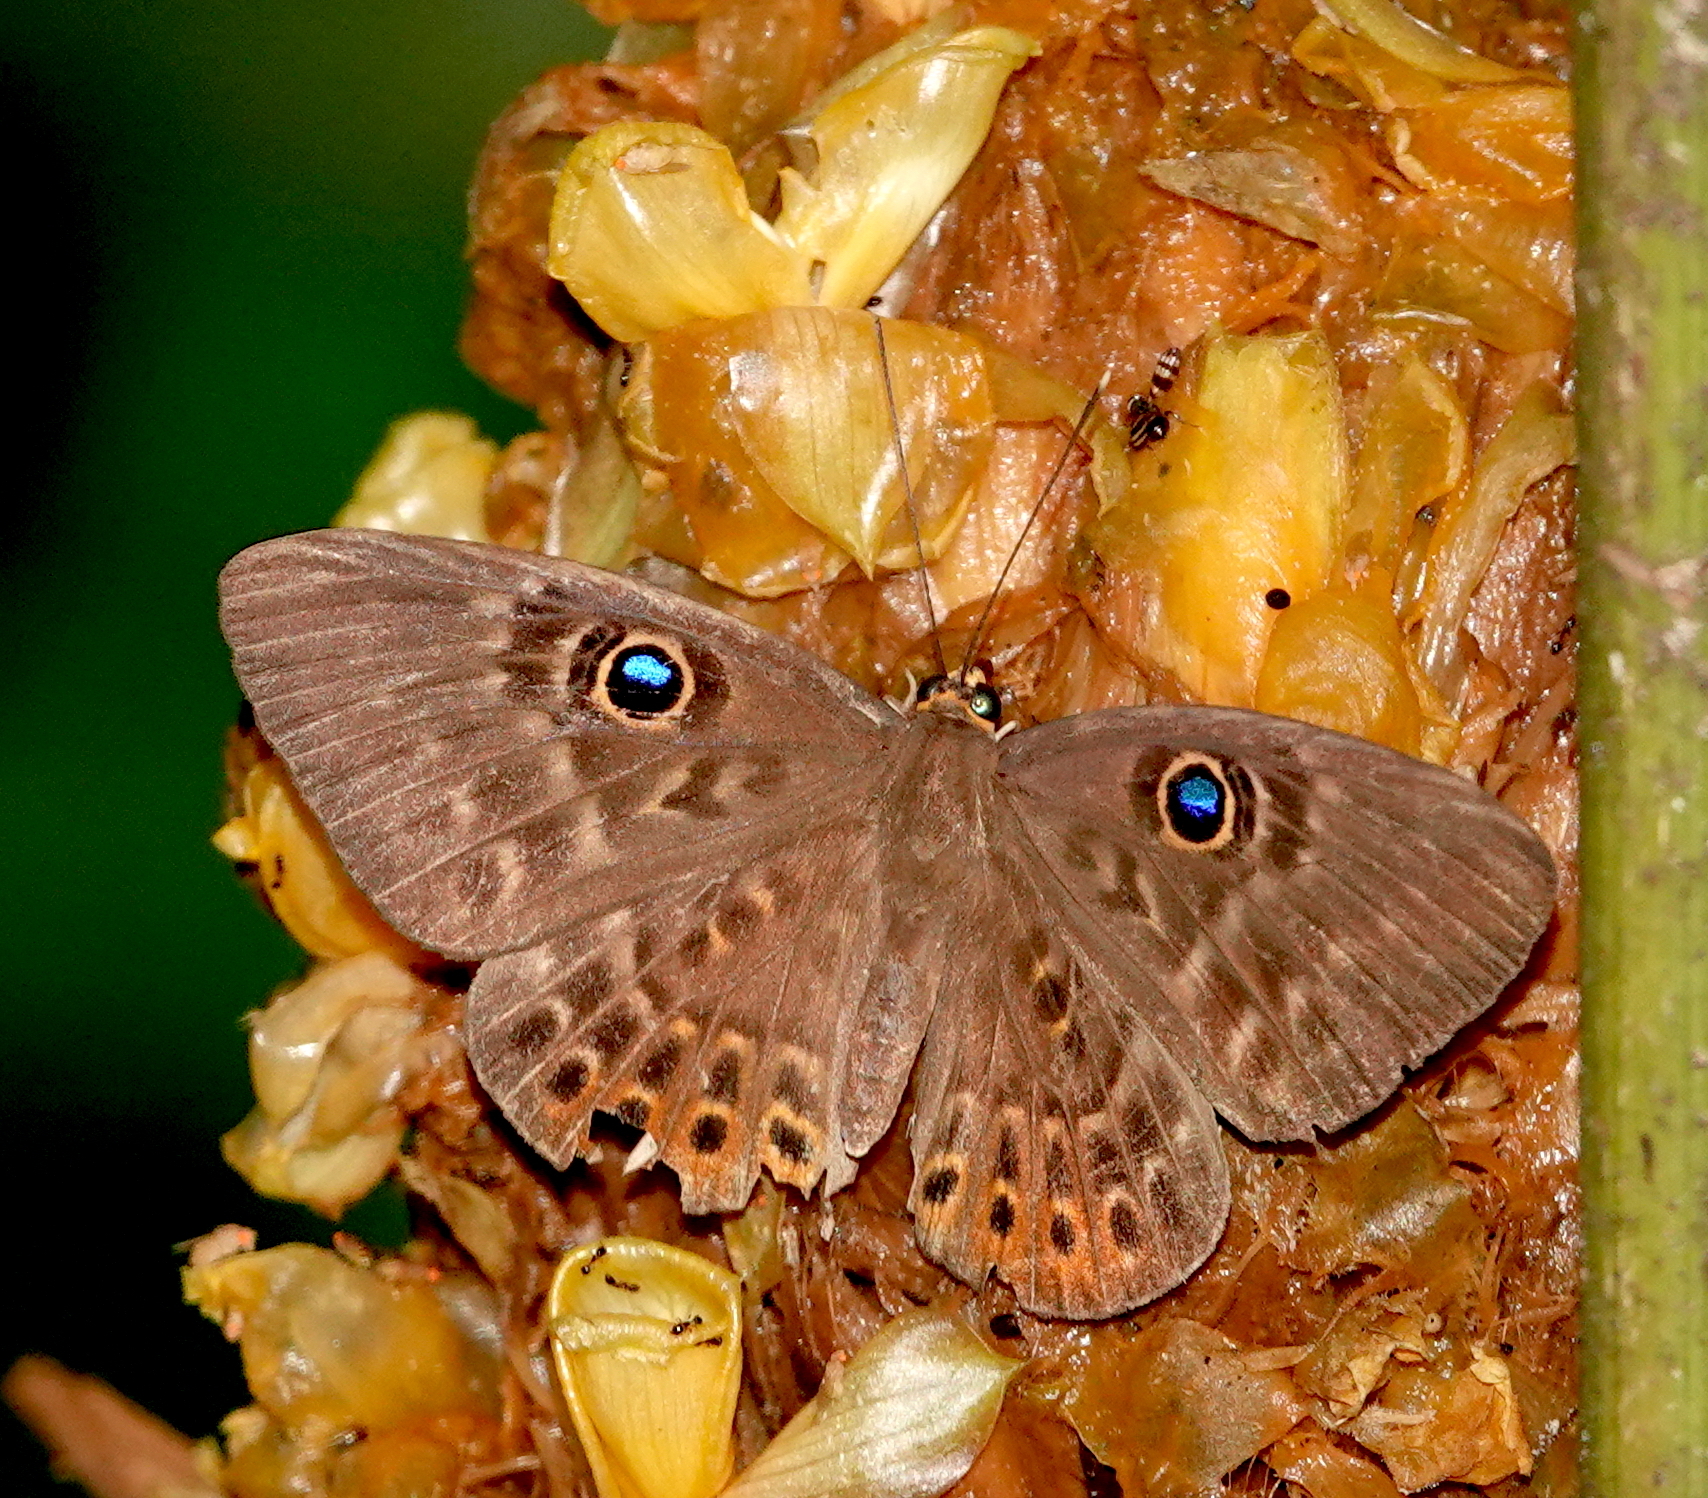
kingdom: Animalia
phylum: Cnidaria
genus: Eurybia
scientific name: Eurybia patrona
